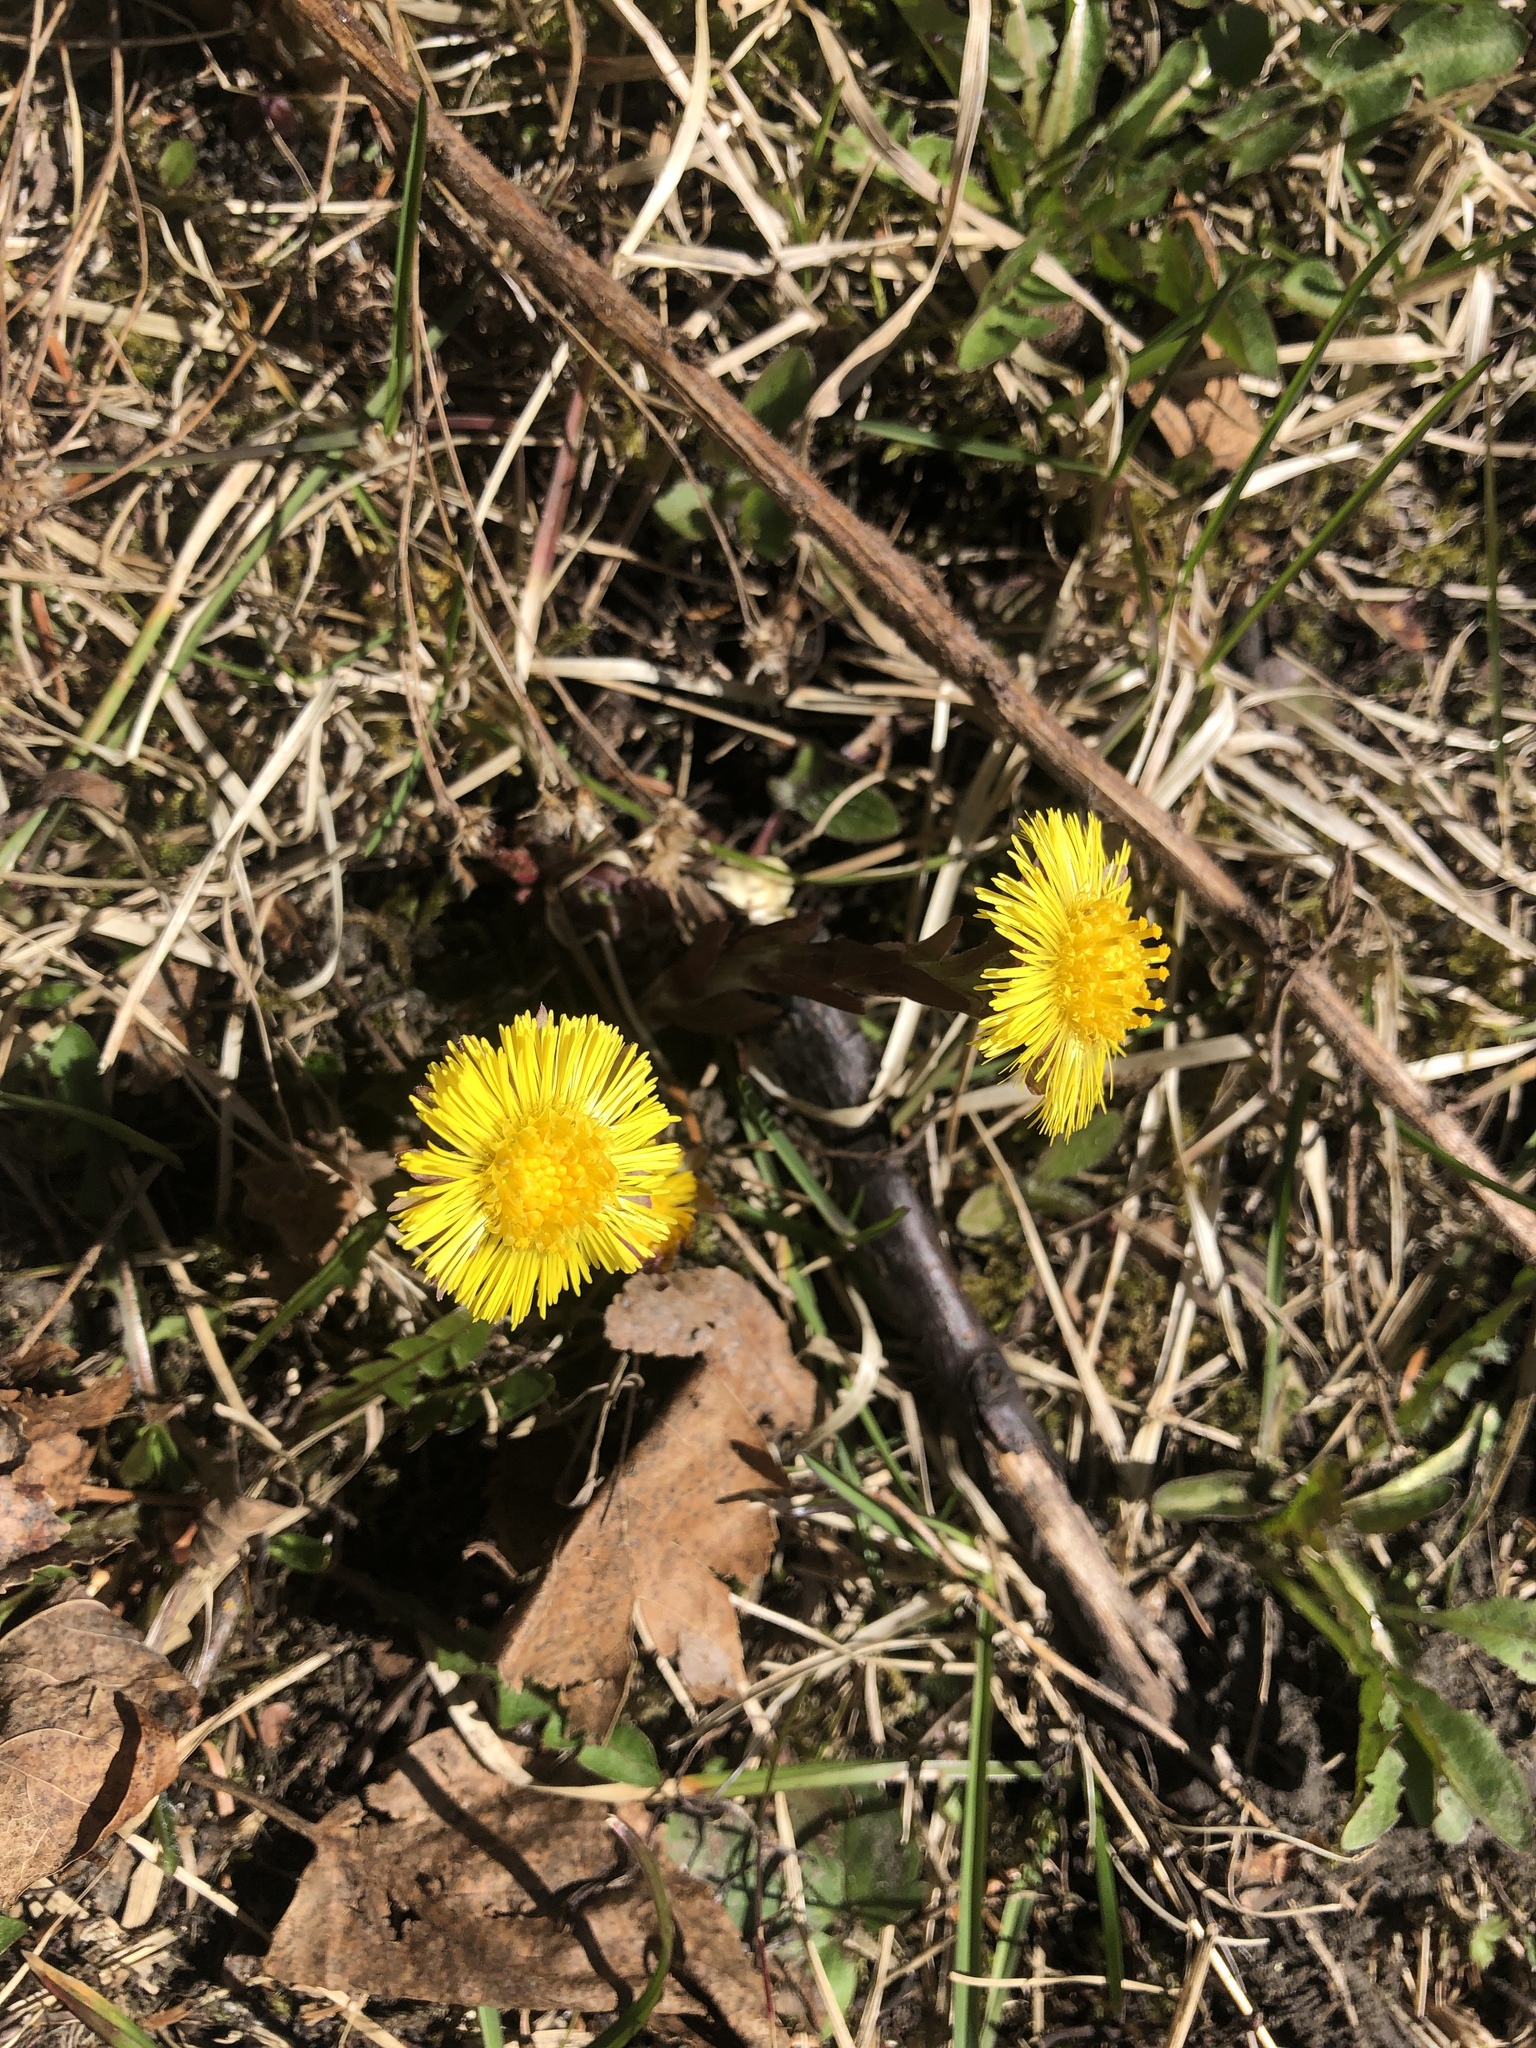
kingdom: Plantae
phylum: Tracheophyta
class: Magnoliopsida
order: Asterales
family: Asteraceae
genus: Tussilago
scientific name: Tussilago farfara
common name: Coltsfoot
